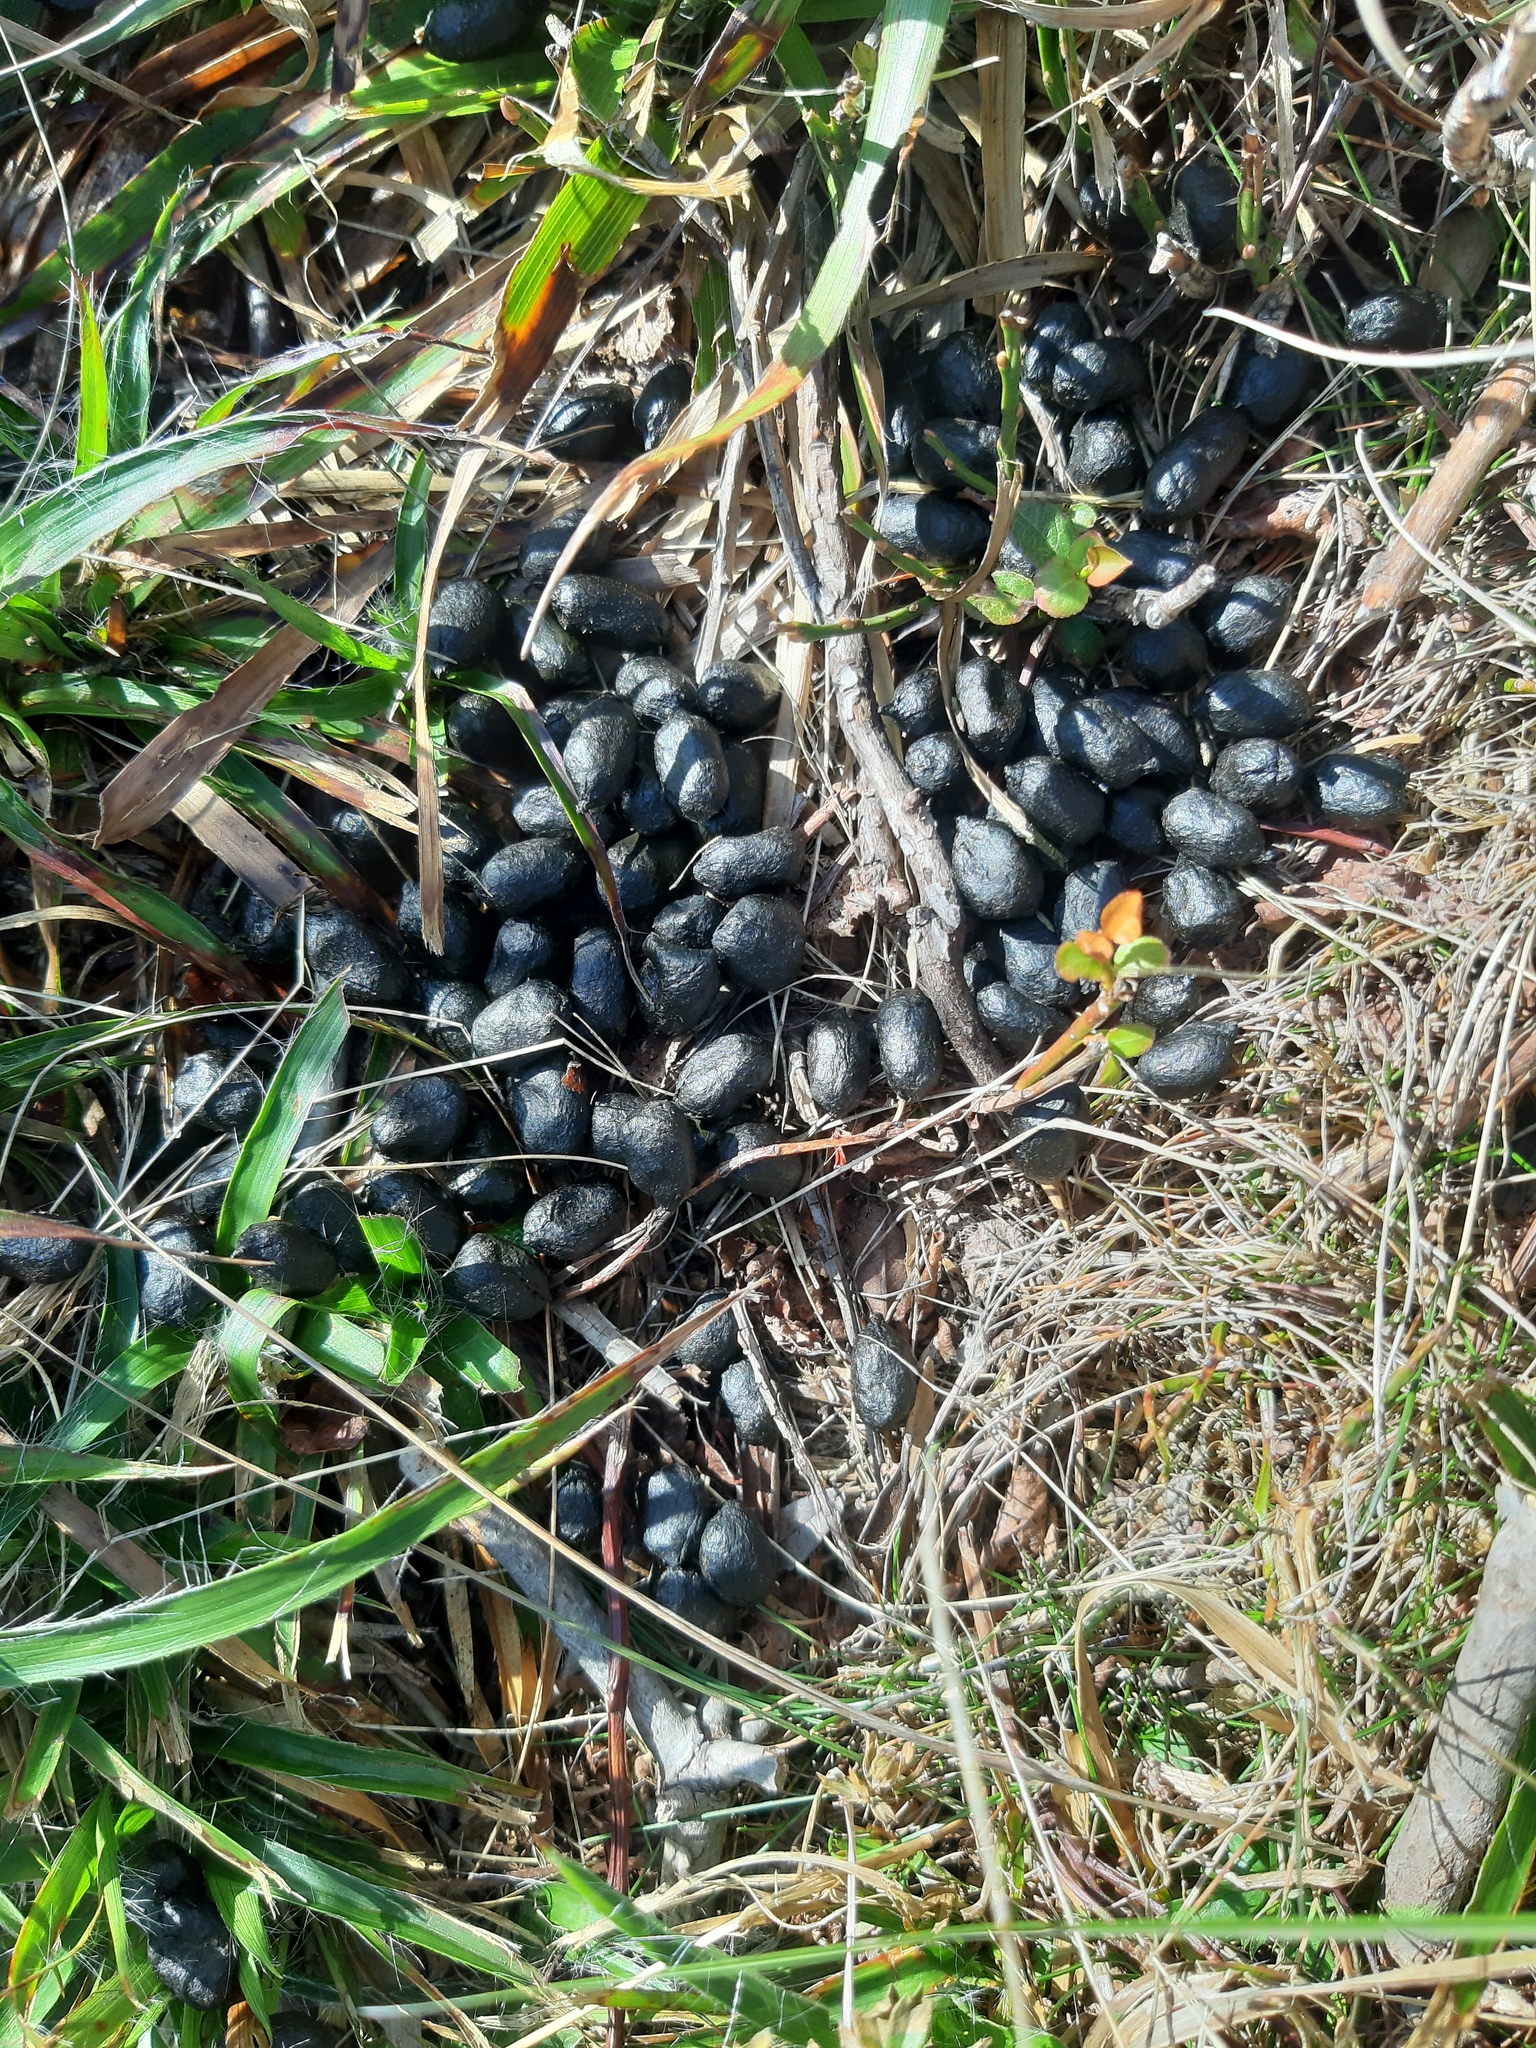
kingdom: Animalia
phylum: Chordata
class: Mammalia
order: Artiodactyla
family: Bovidae
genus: Rupicapra
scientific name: Rupicapra rupicapra
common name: Chamois
